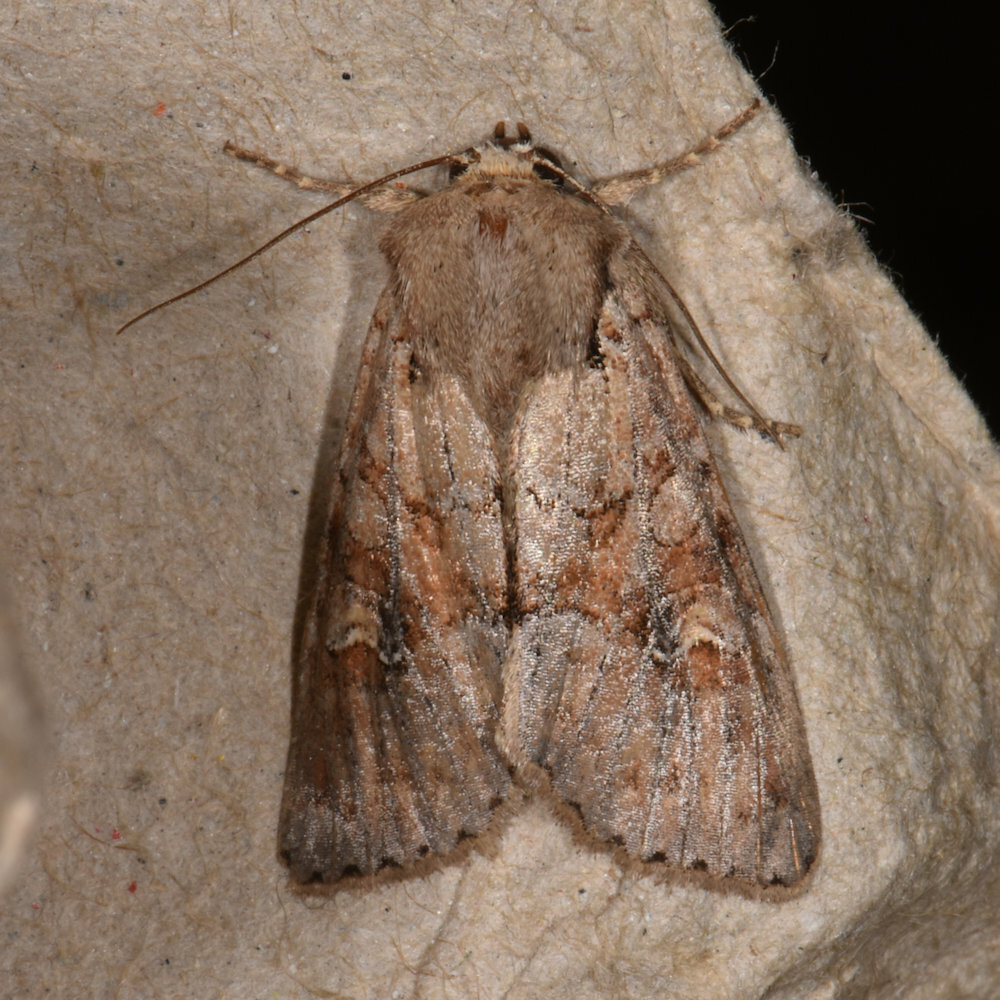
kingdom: Animalia
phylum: Arthropoda
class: Insecta
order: Lepidoptera
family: Noctuidae
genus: Apamea
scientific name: Apamea sordens
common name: Rustic shoulder-knot
